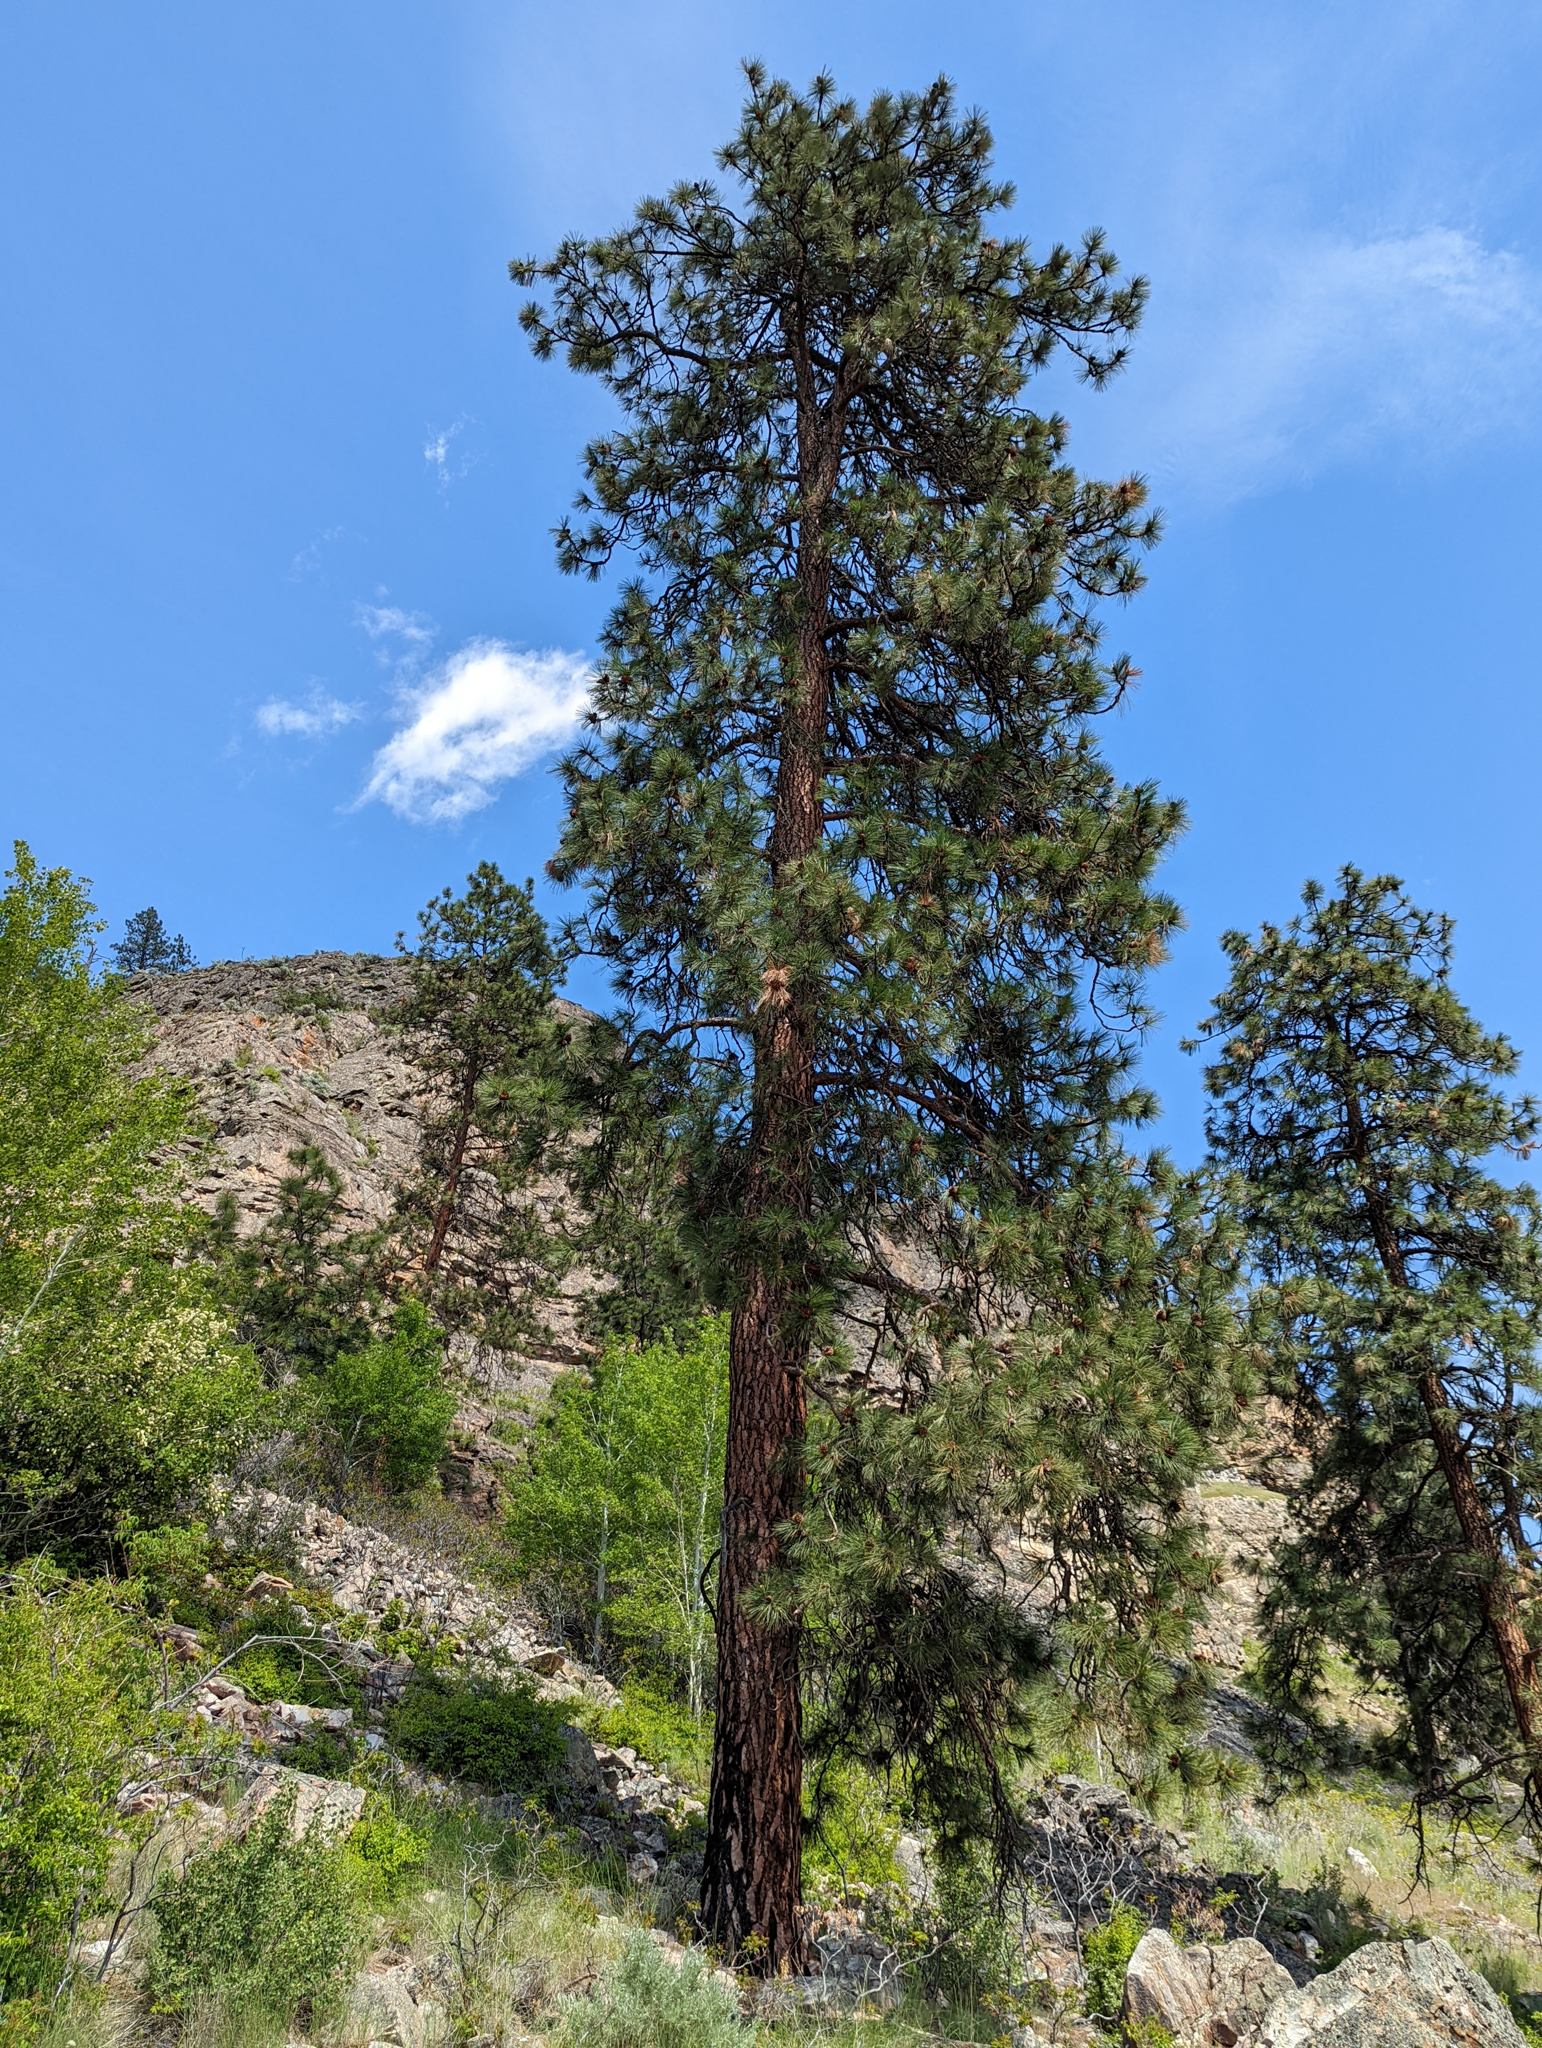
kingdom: Plantae
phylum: Tracheophyta
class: Pinopsida
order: Pinales
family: Pinaceae
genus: Pinus
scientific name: Pinus ponderosa
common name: Western yellow-pine
